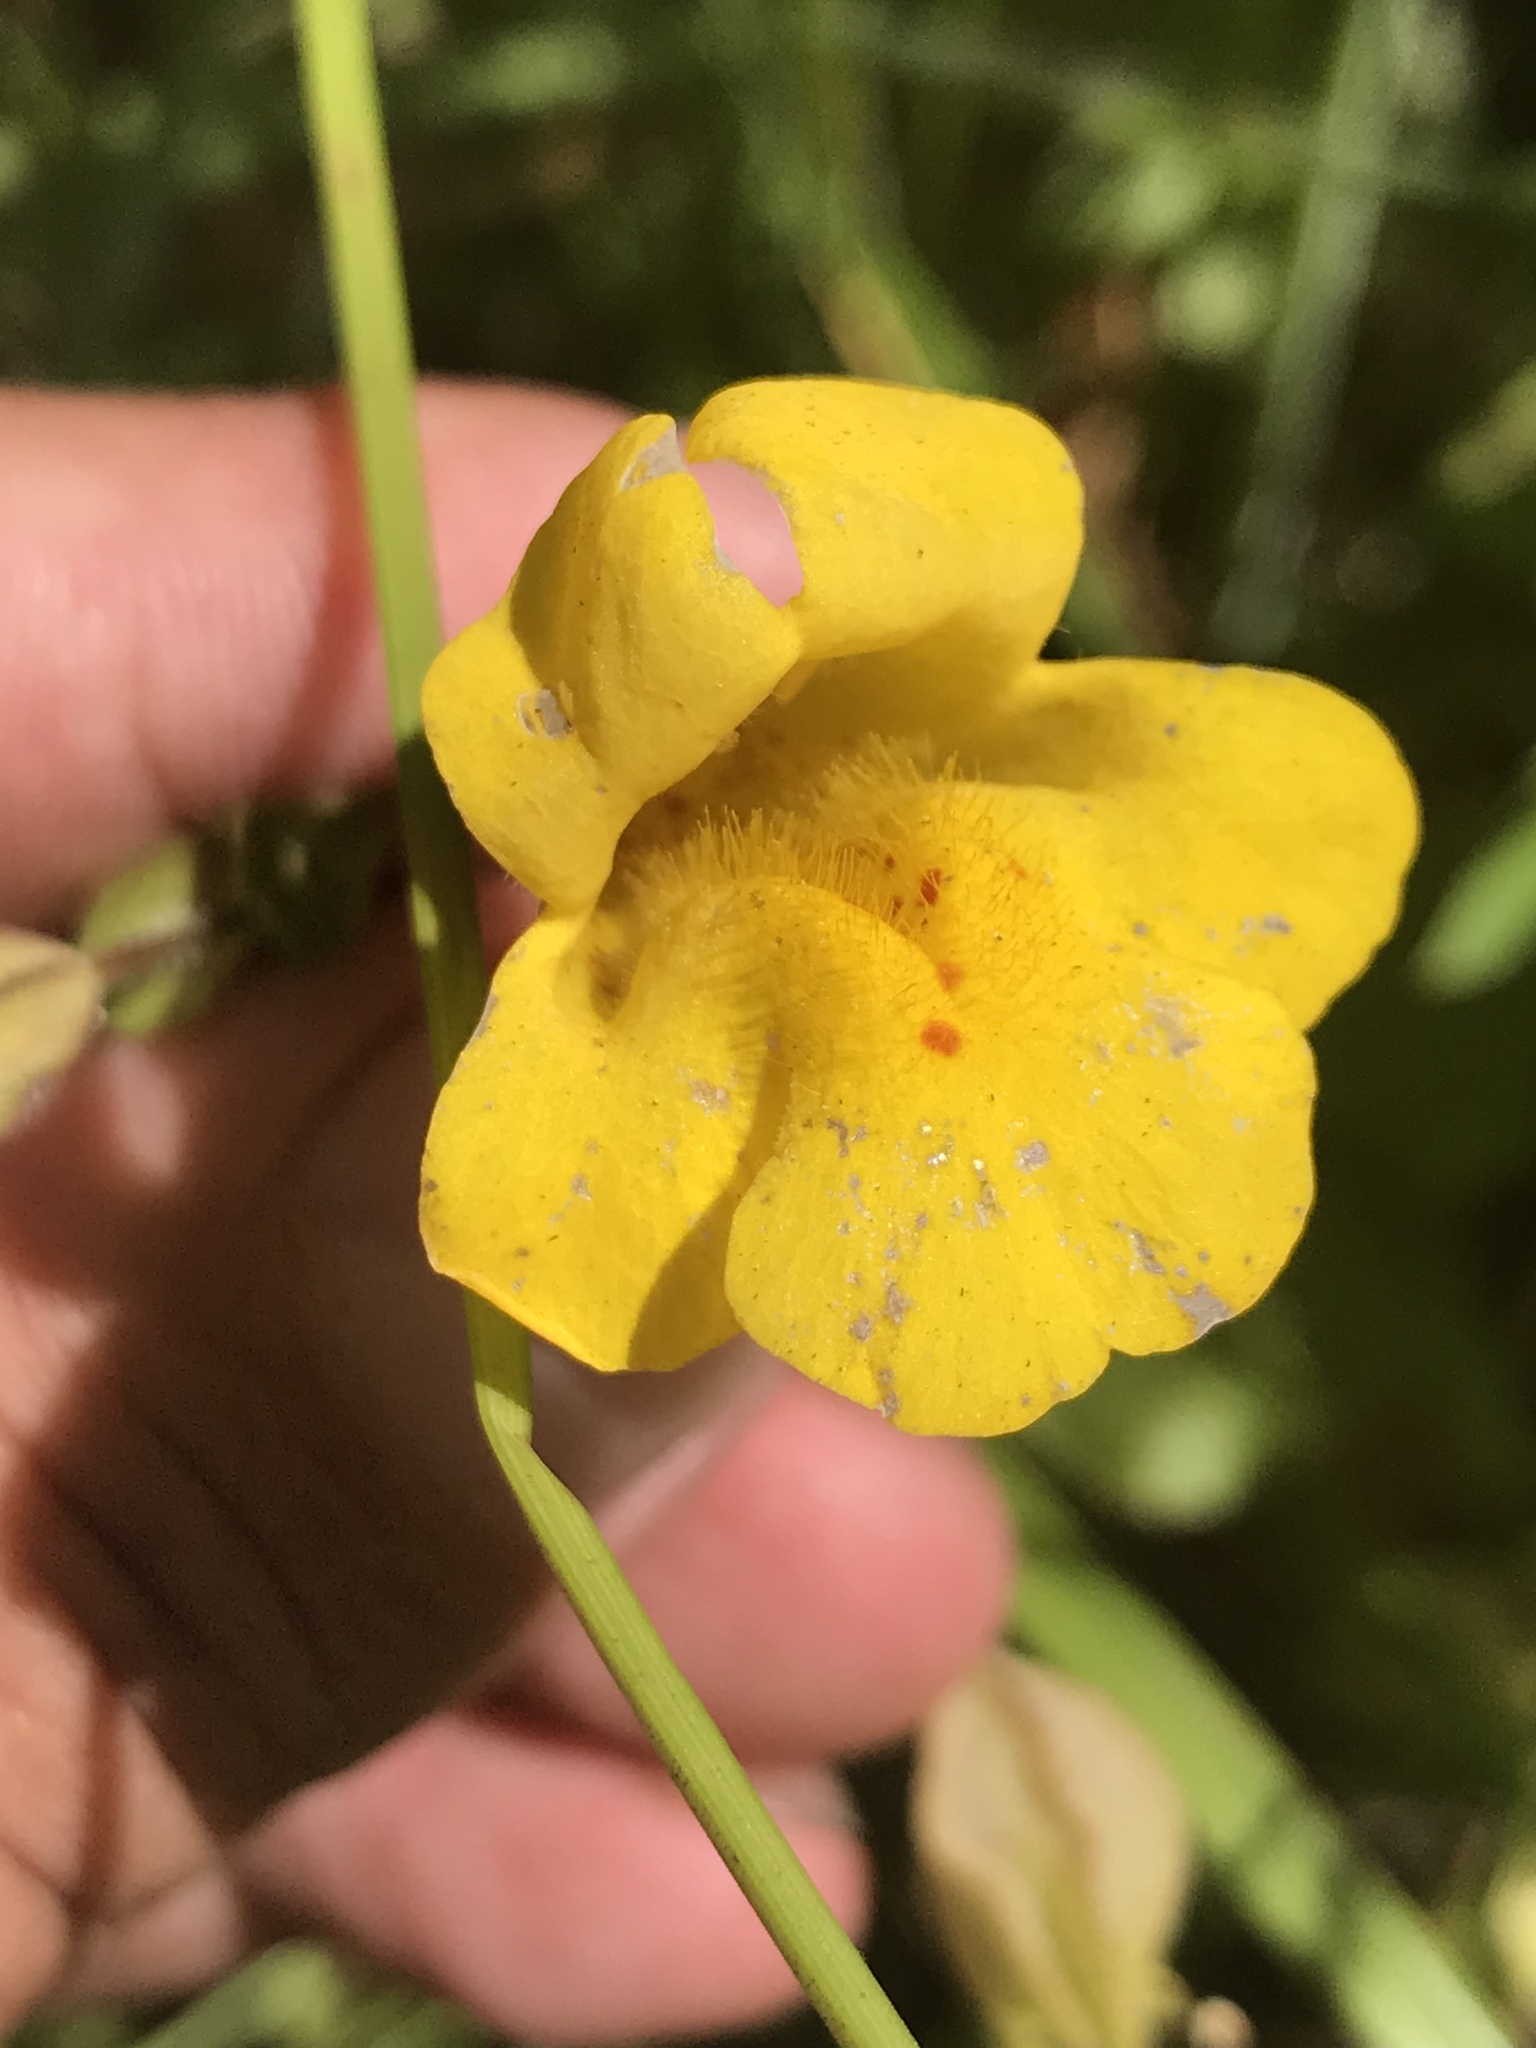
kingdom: Plantae
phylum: Tracheophyta
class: Magnoliopsida
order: Lamiales
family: Phrymaceae
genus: Erythranthe
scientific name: Erythranthe guttata
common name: Monkeyflower
